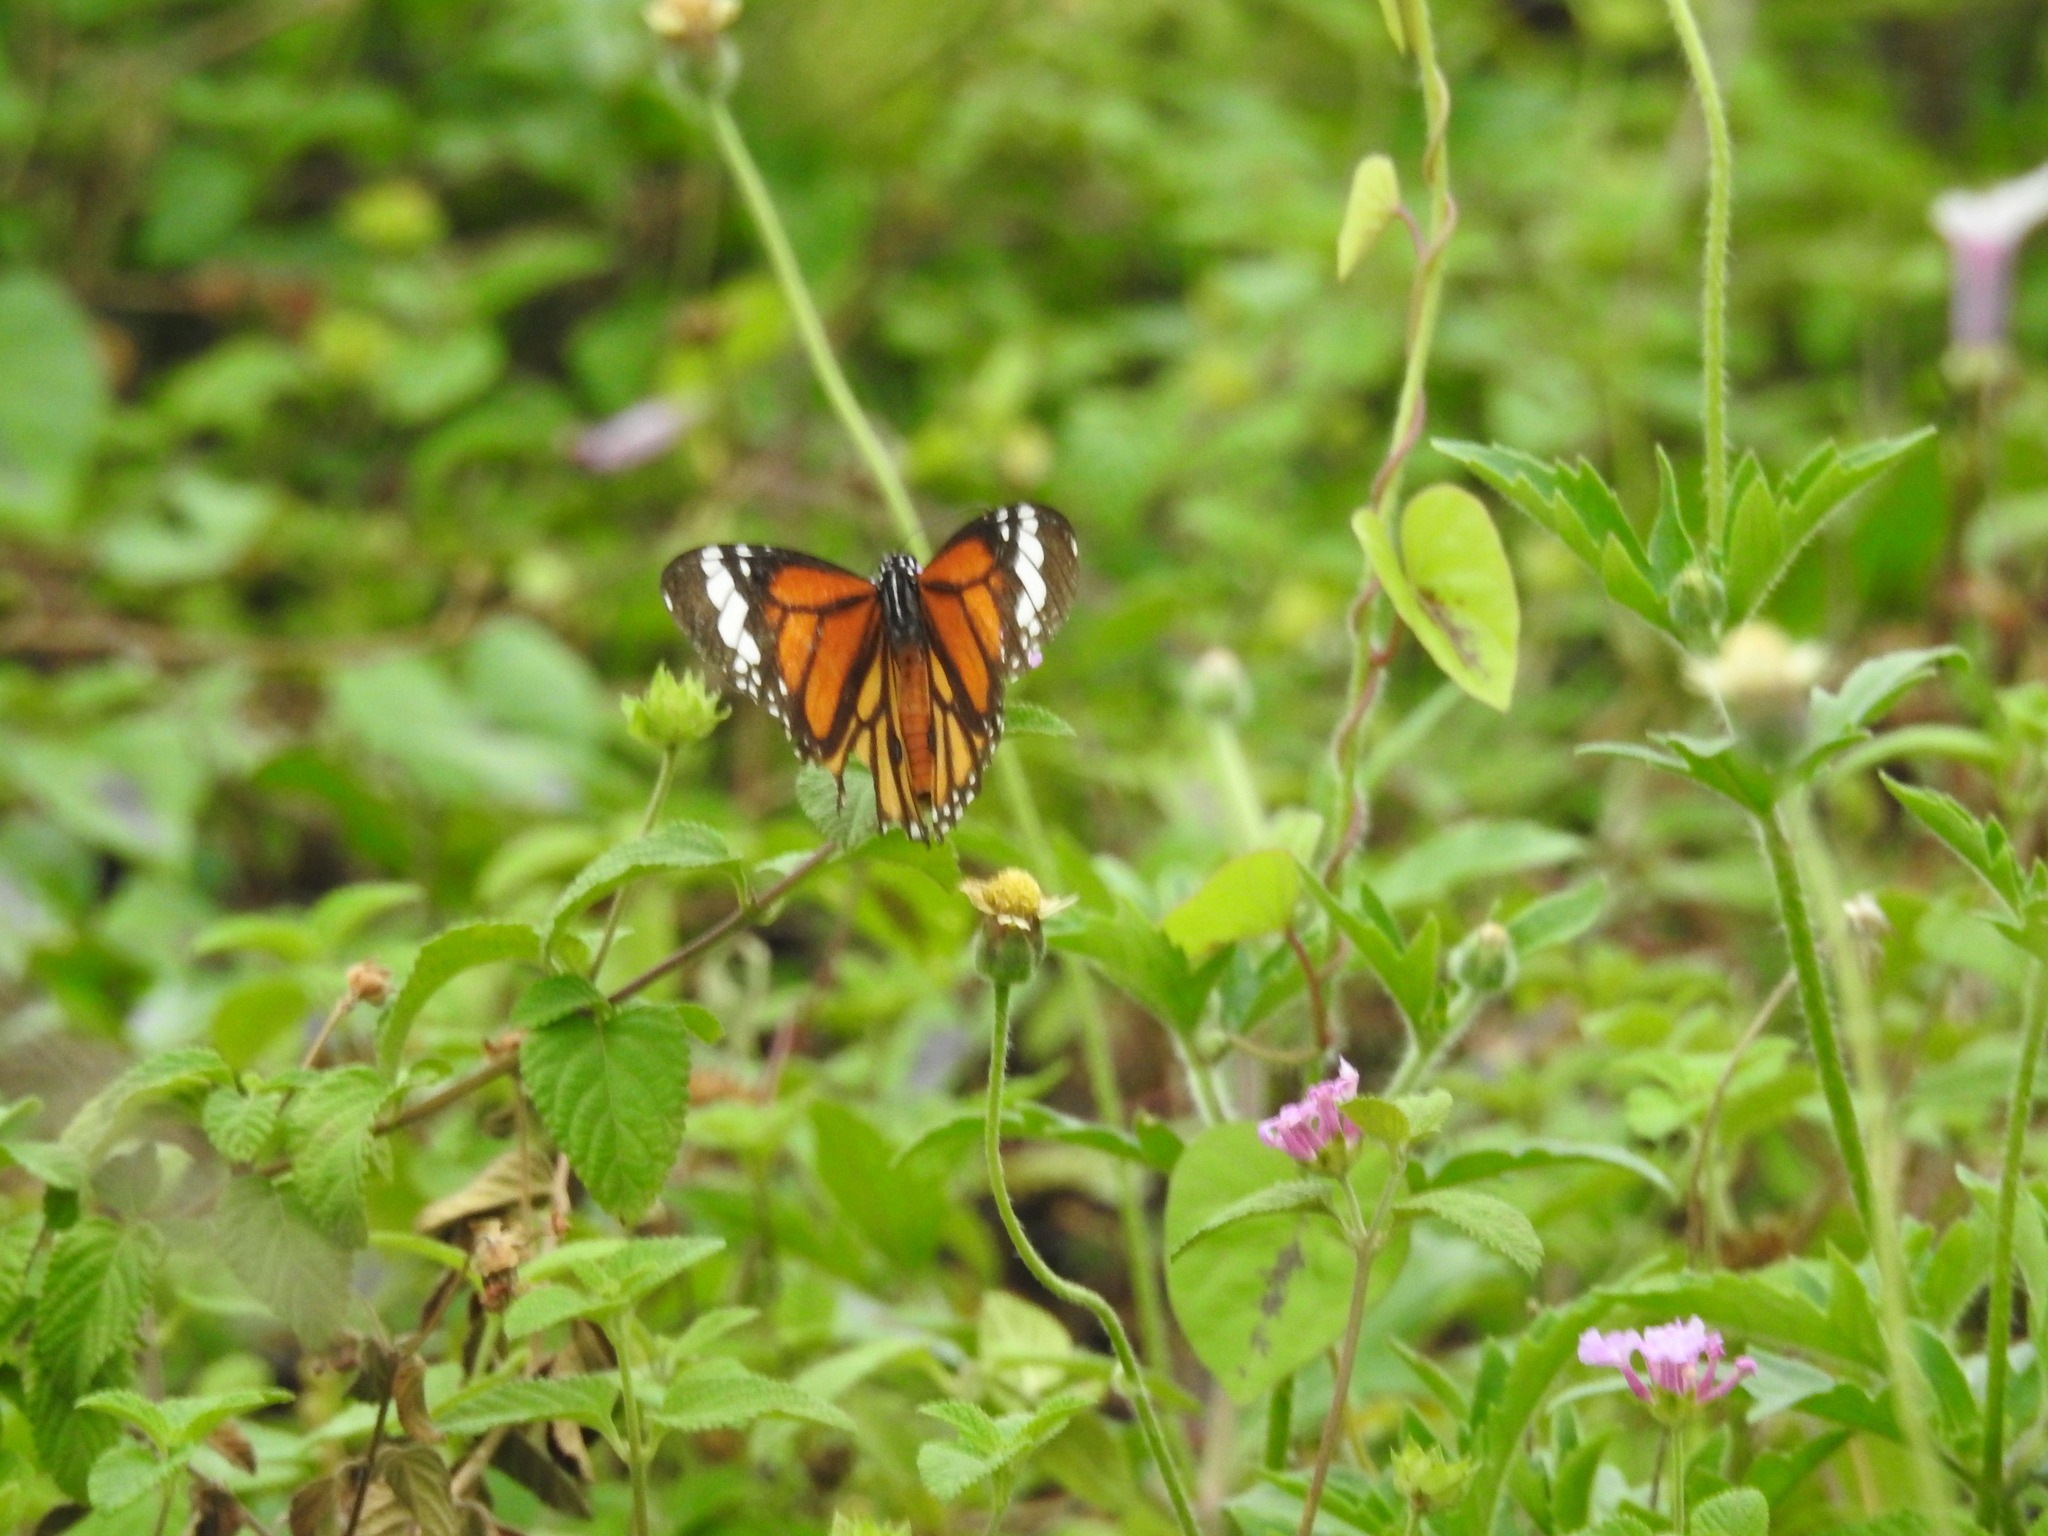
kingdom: Animalia
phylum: Arthropoda
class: Insecta
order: Lepidoptera
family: Nymphalidae
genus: Danaus
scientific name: Danaus genutia
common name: Common tiger butterfly
